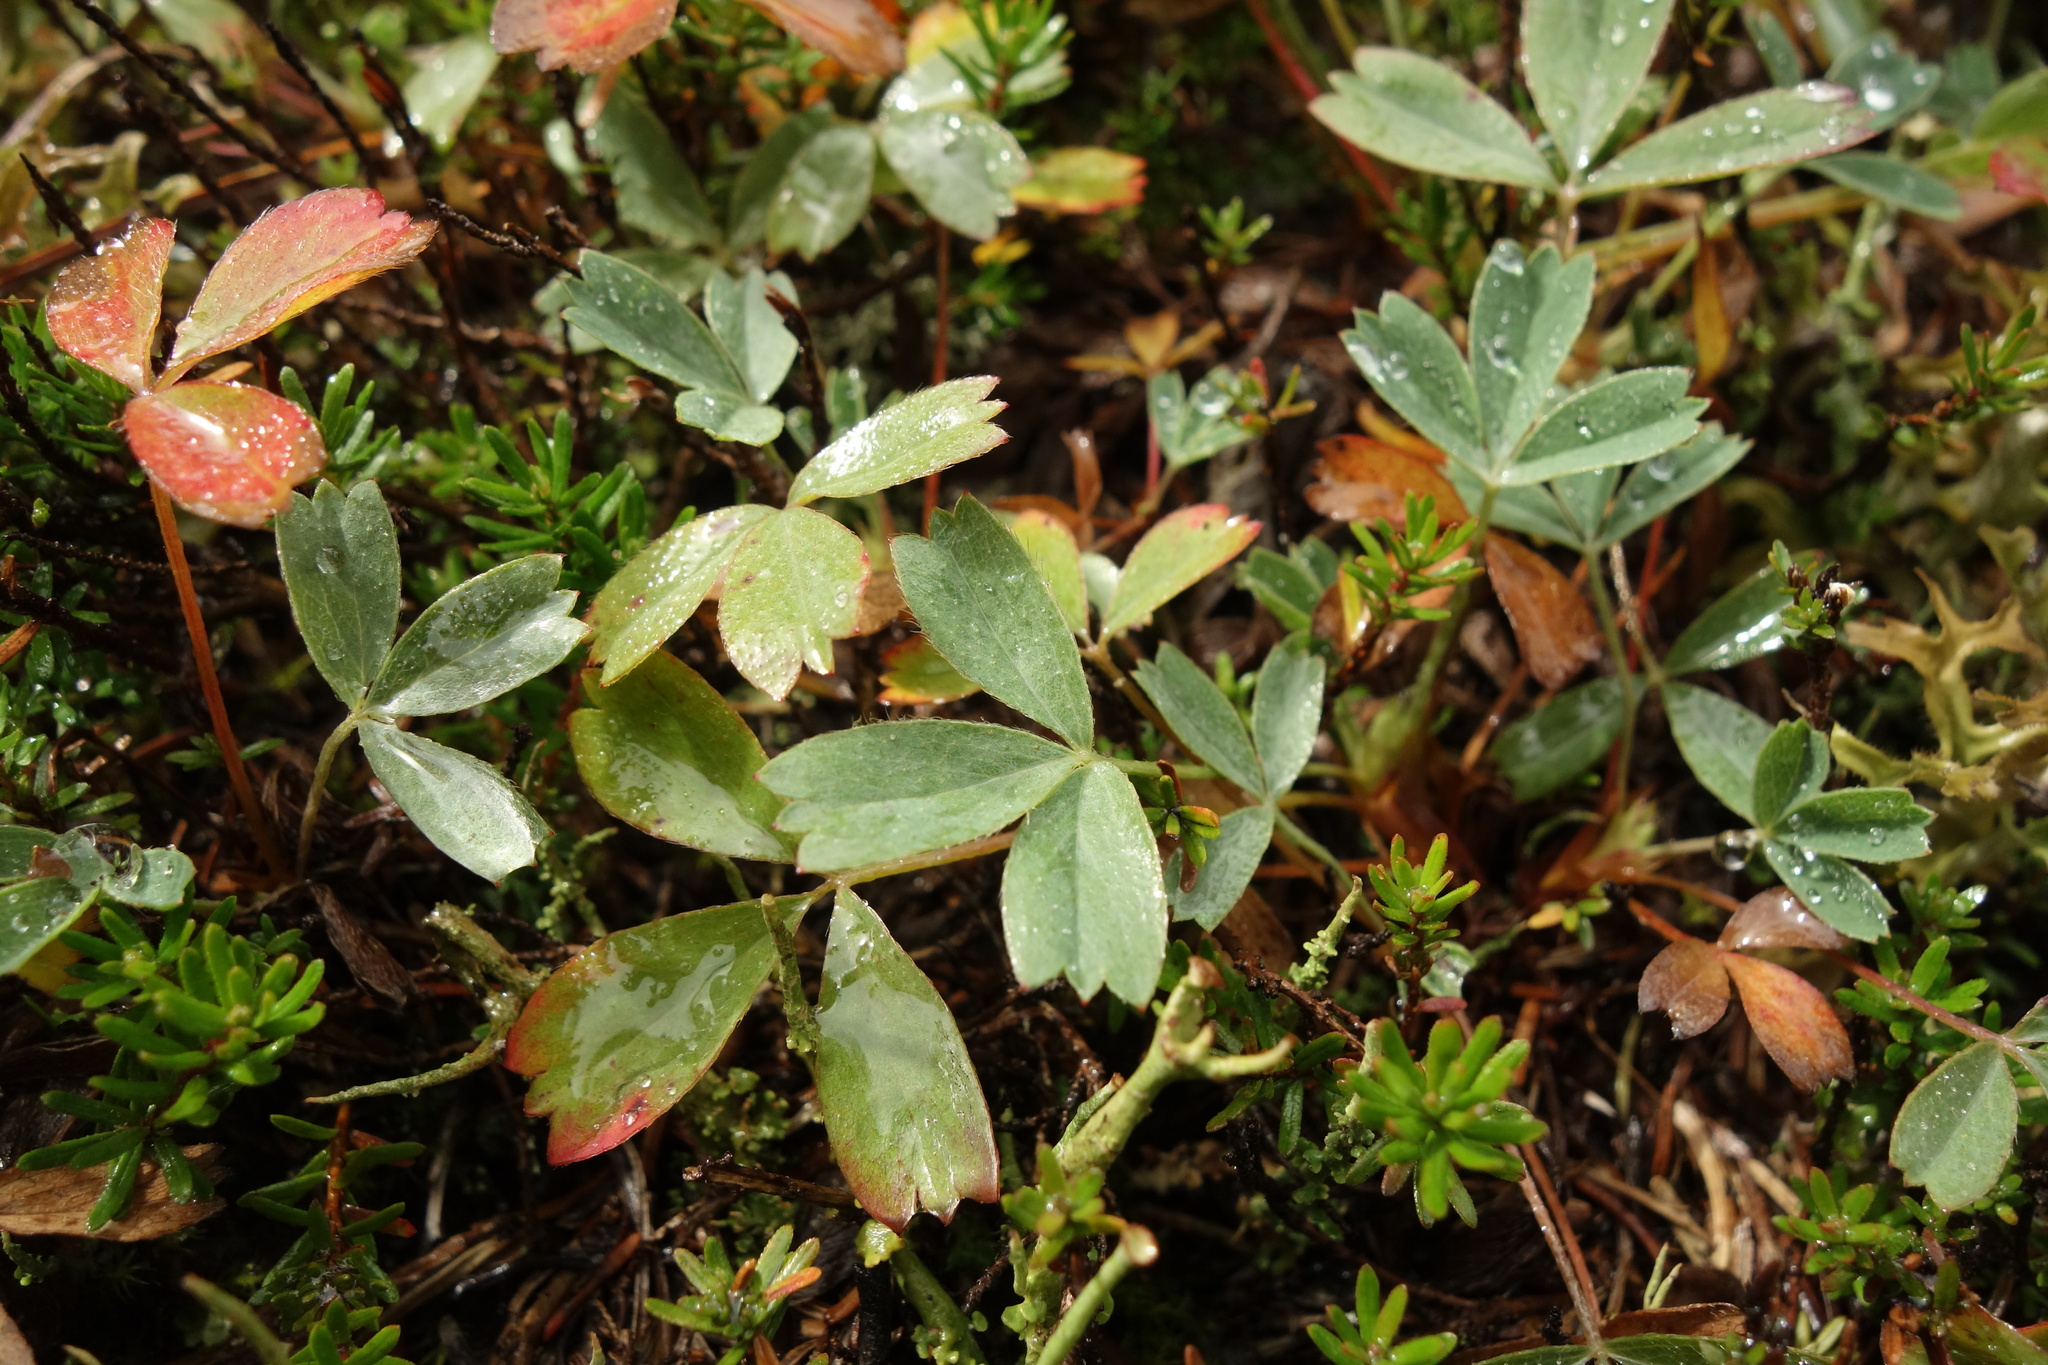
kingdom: Plantae
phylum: Tracheophyta
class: Magnoliopsida
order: Rosales
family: Rosaceae
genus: Sibbaldia
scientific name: Sibbaldia procumbens
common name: Creeping sibbaldia
